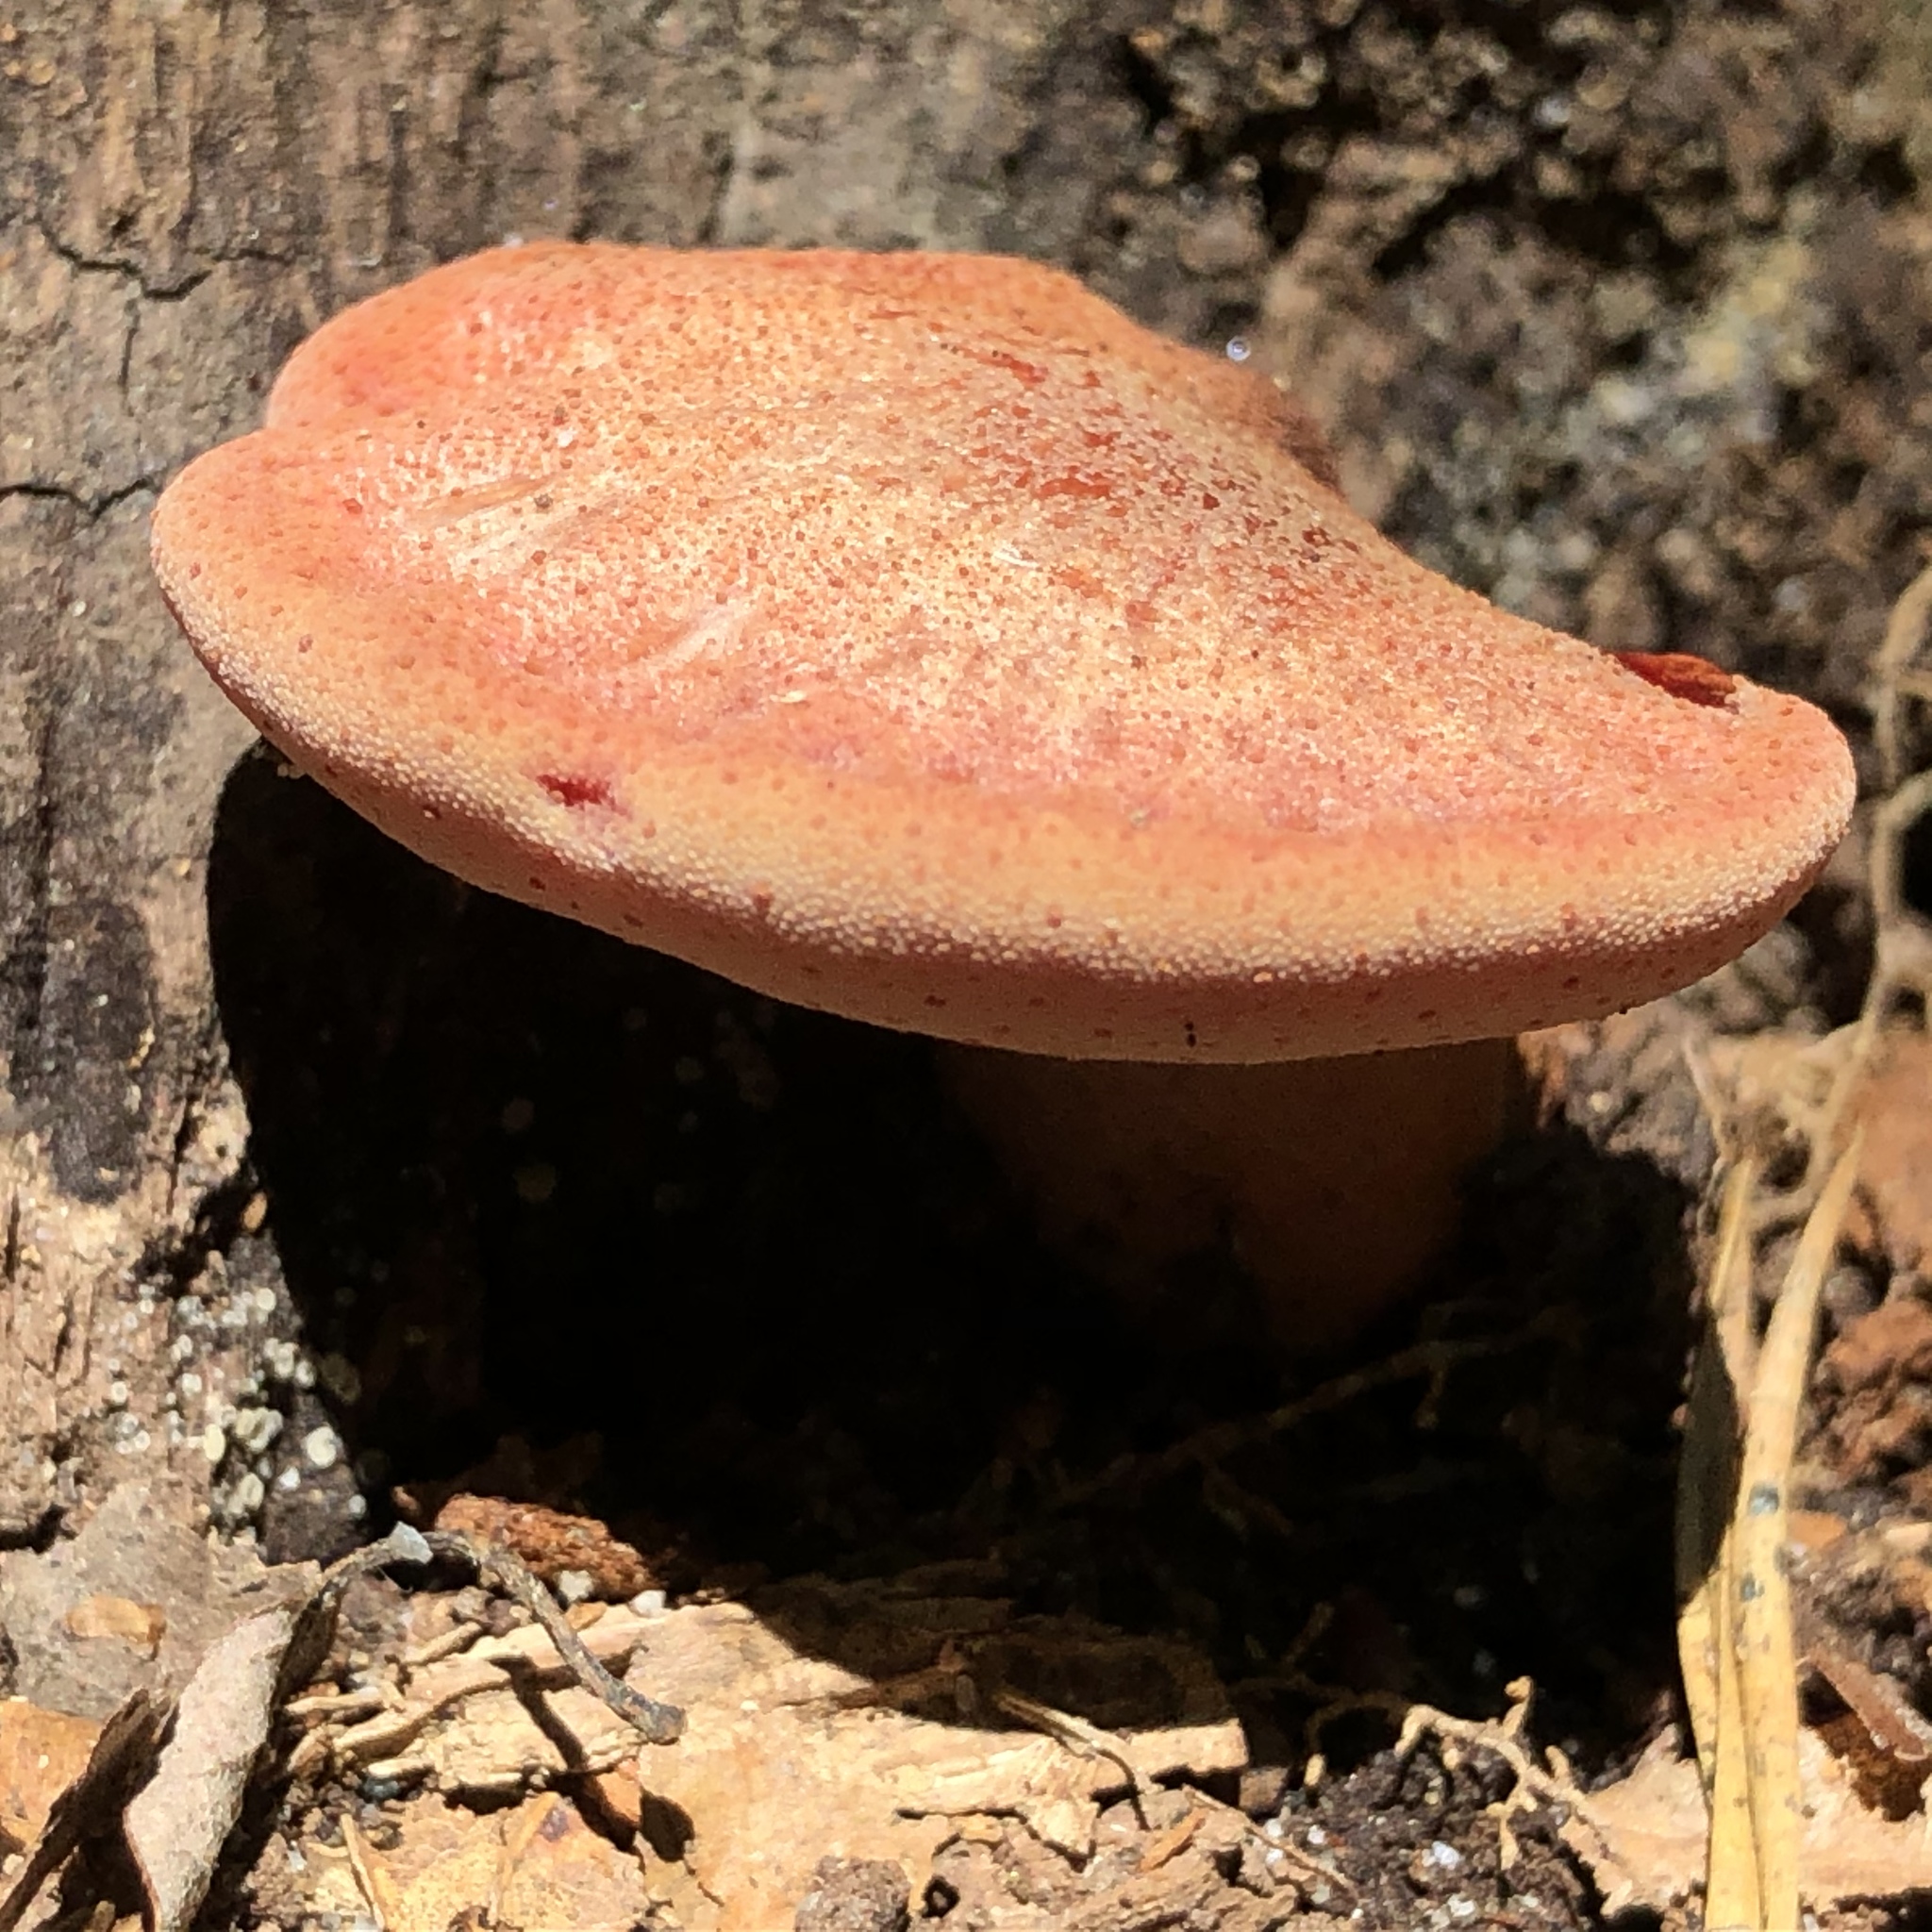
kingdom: Fungi
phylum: Basidiomycota
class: Agaricomycetes
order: Agaricales
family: Fistulinaceae
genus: Fistulina
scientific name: Fistulina hepatica
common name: Beef-steak fungus
